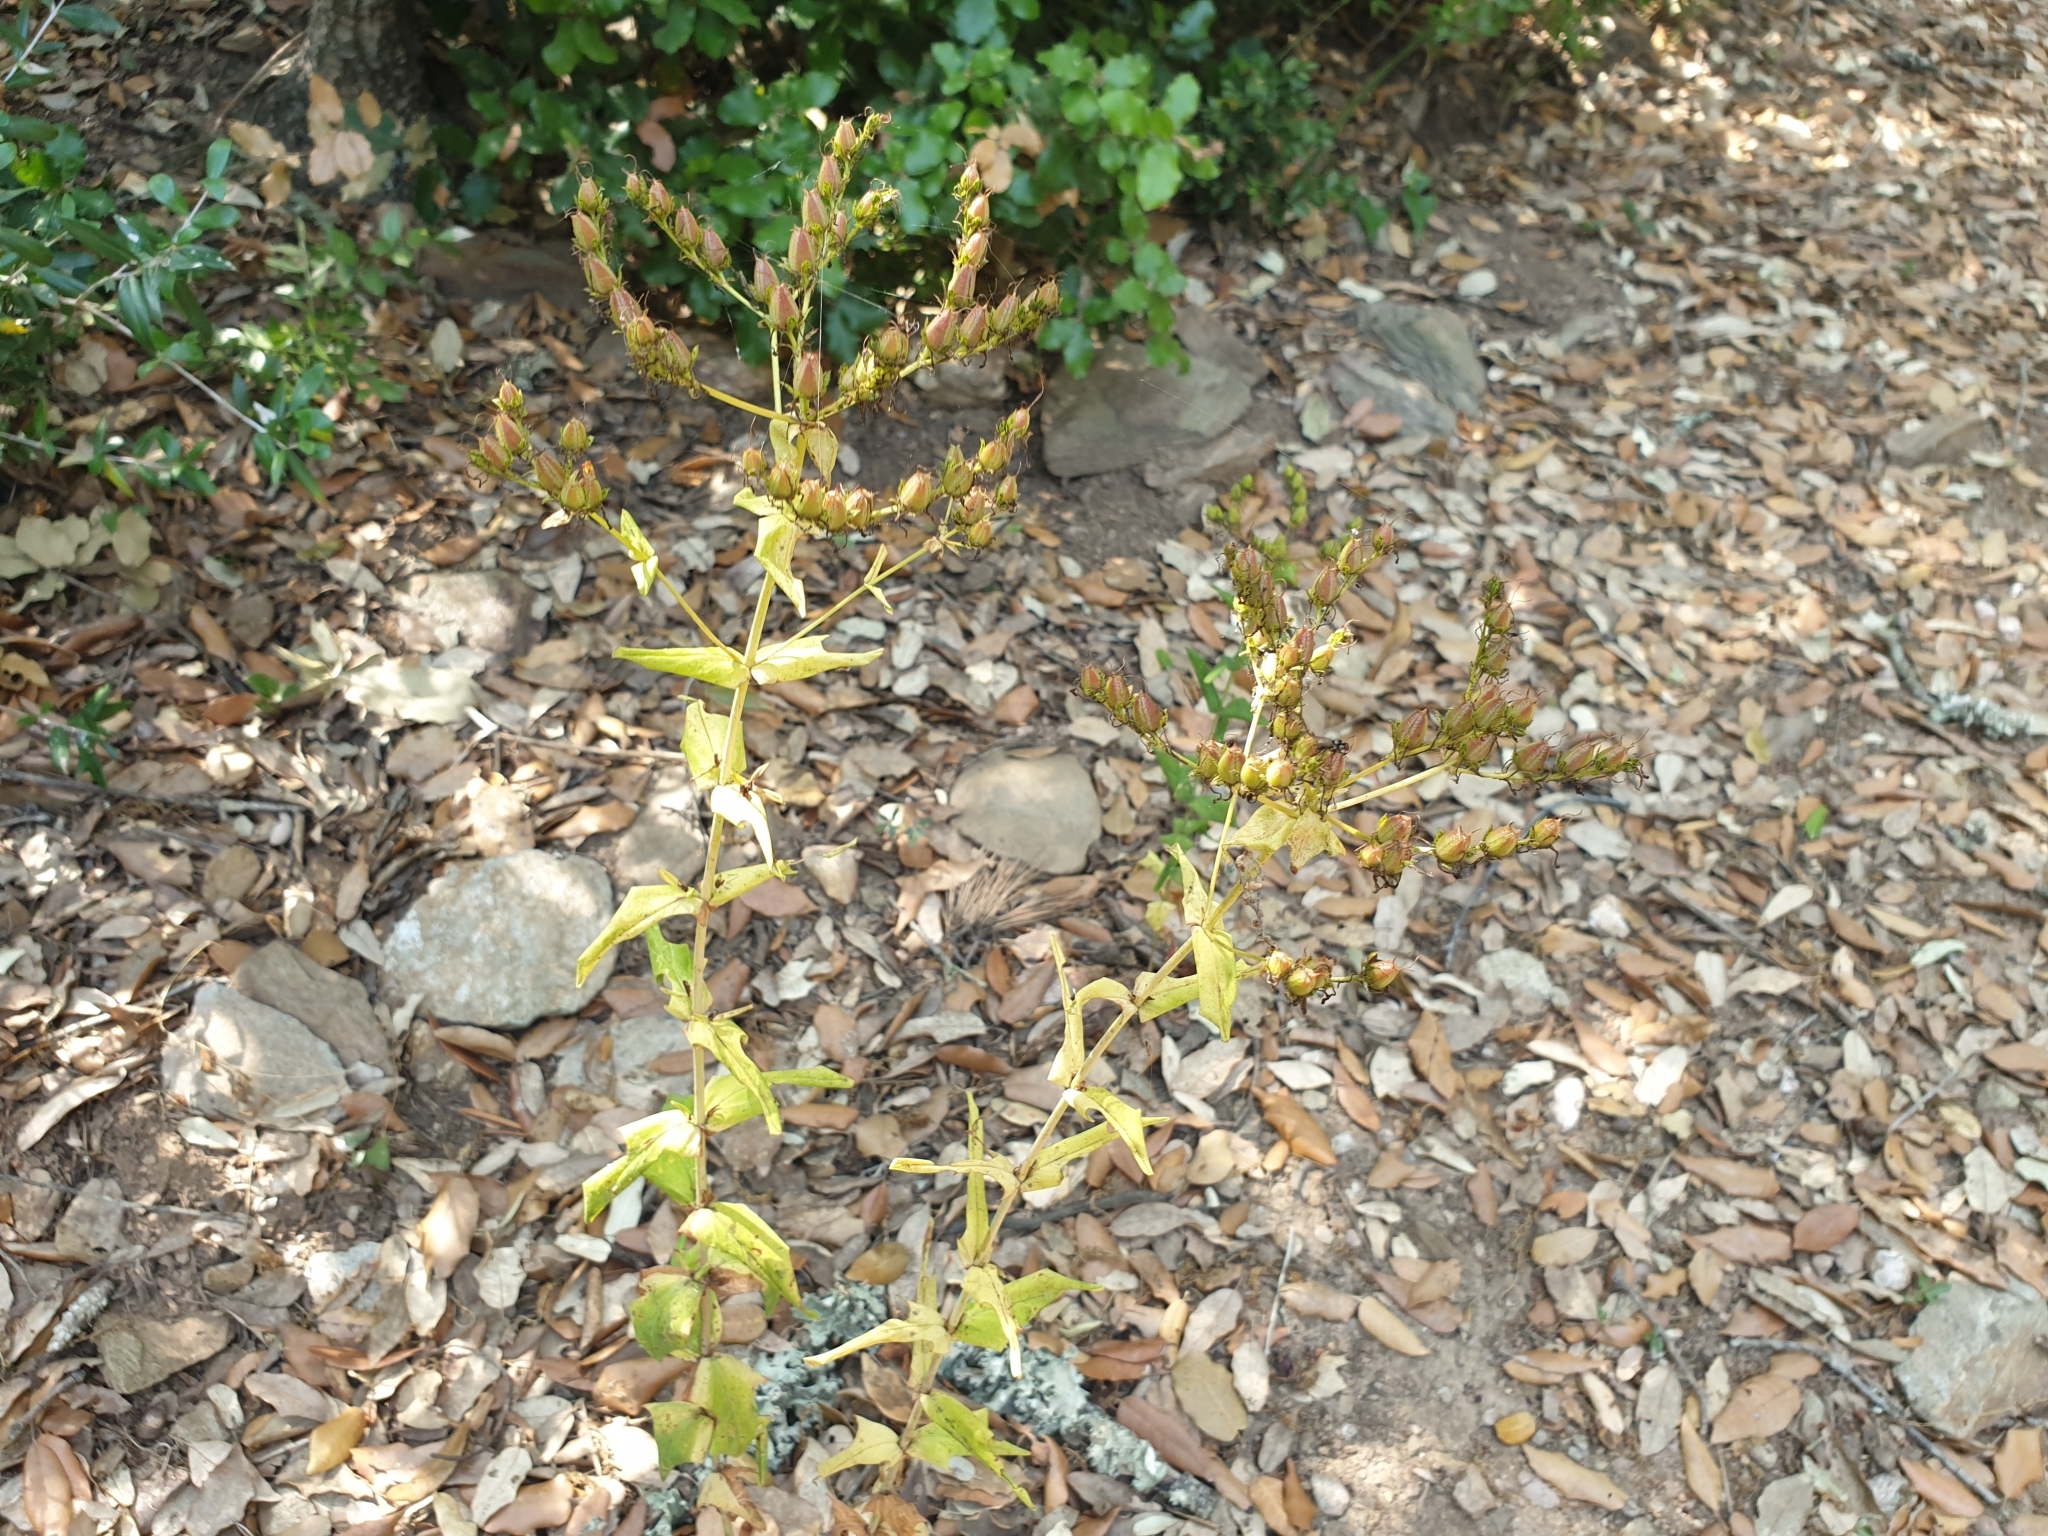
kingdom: Plantae
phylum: Tracheophyta
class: Magnoliopsida
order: Malpighiales
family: Hypericaceae
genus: Hypericum
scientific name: Hypericum perfoliatum
